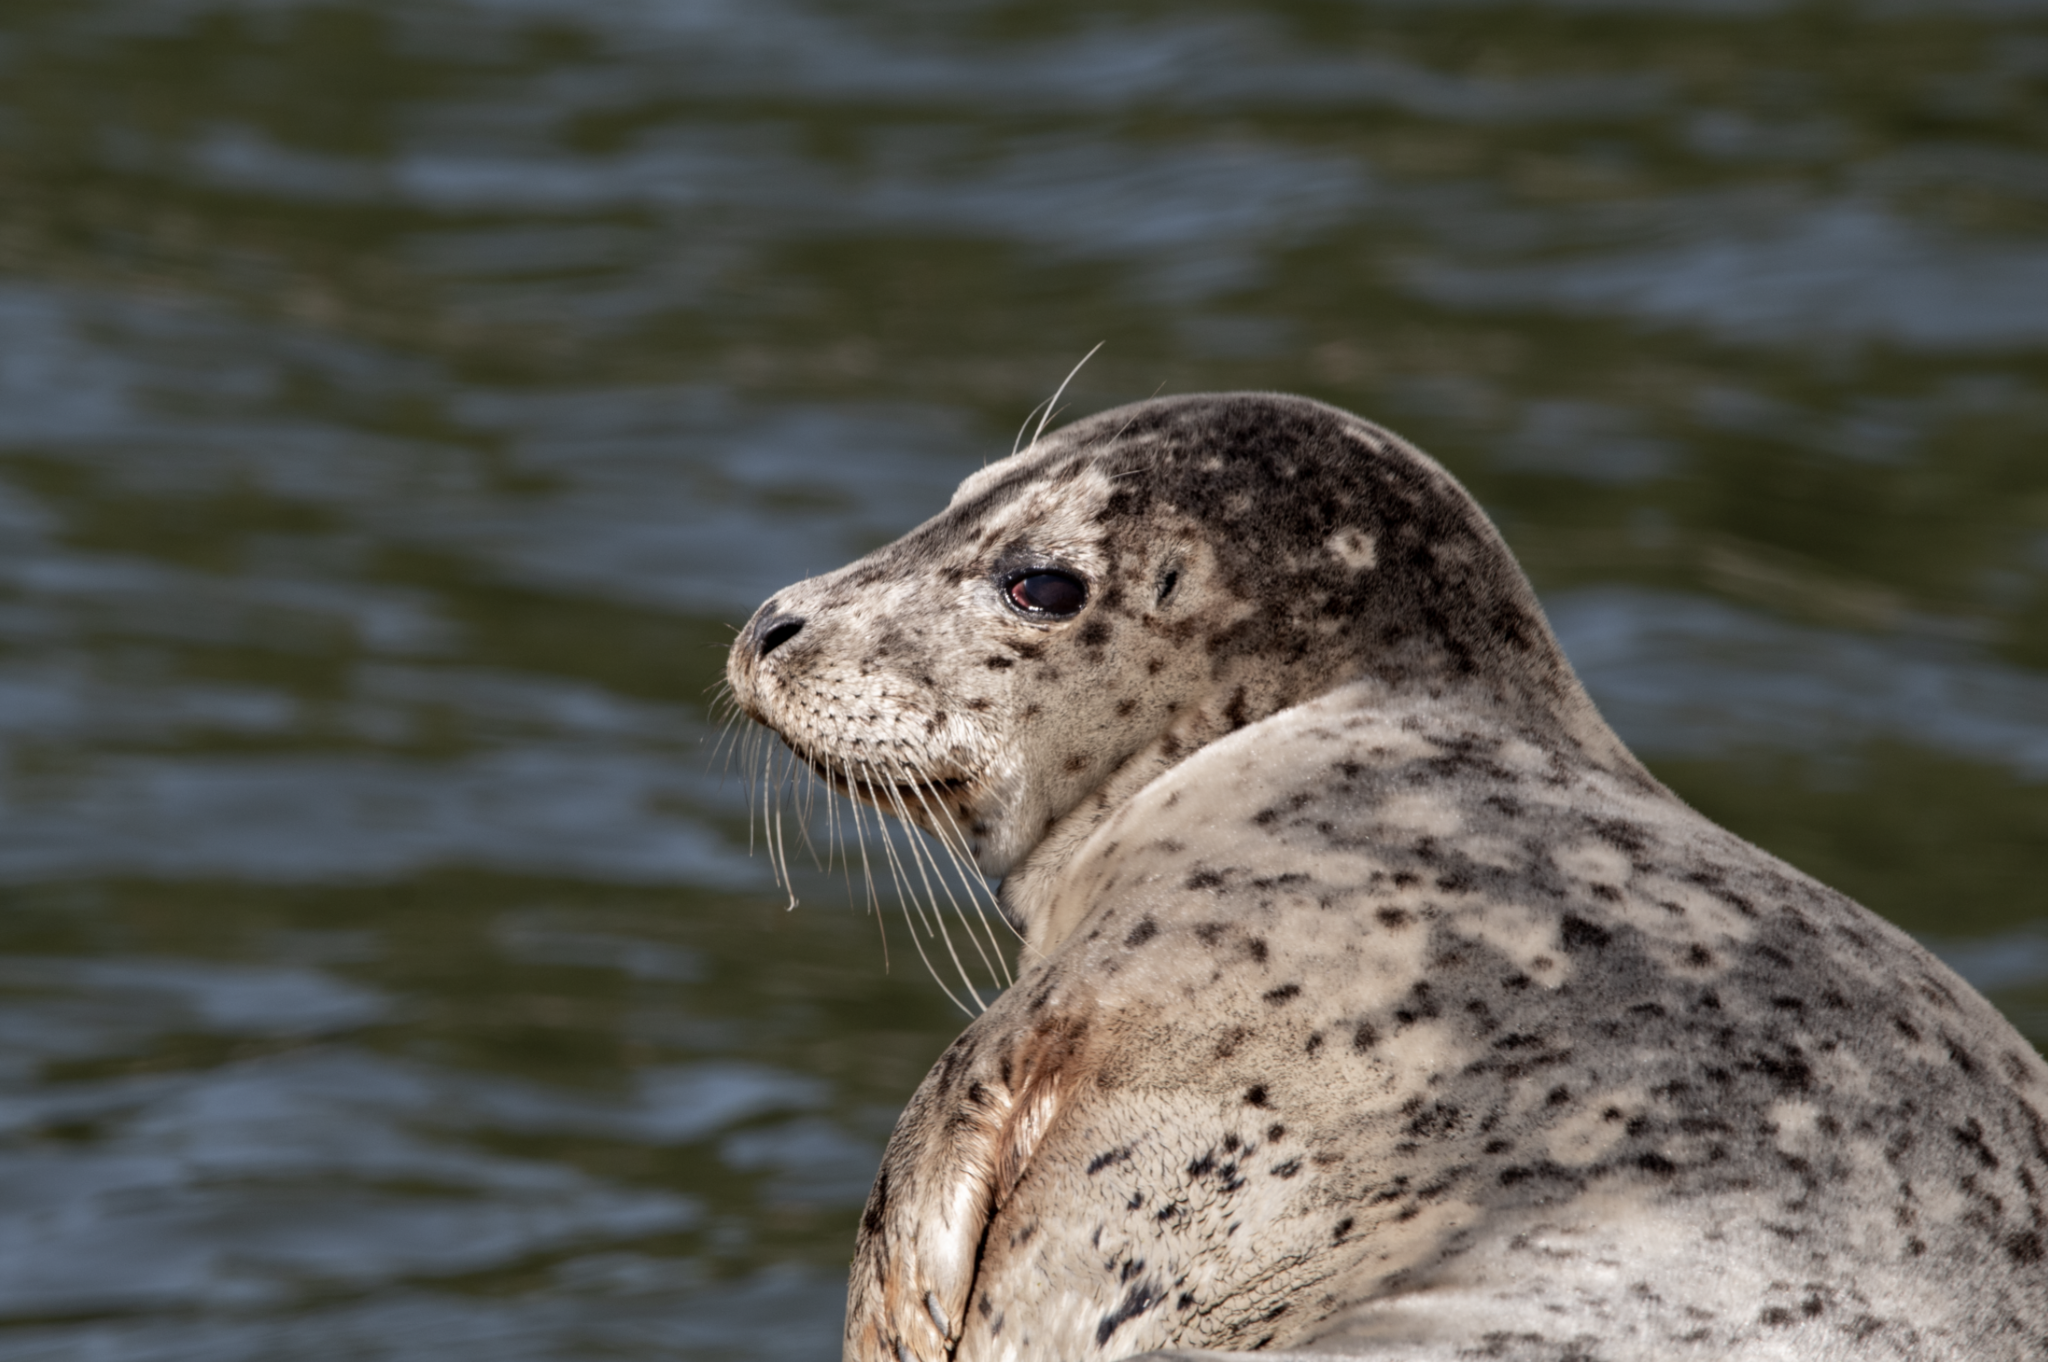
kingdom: Animalia
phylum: Chordata
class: Mammalia
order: Carnivora
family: Phocidae
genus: Phoca
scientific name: Phoca vitulina
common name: Harbor seal
